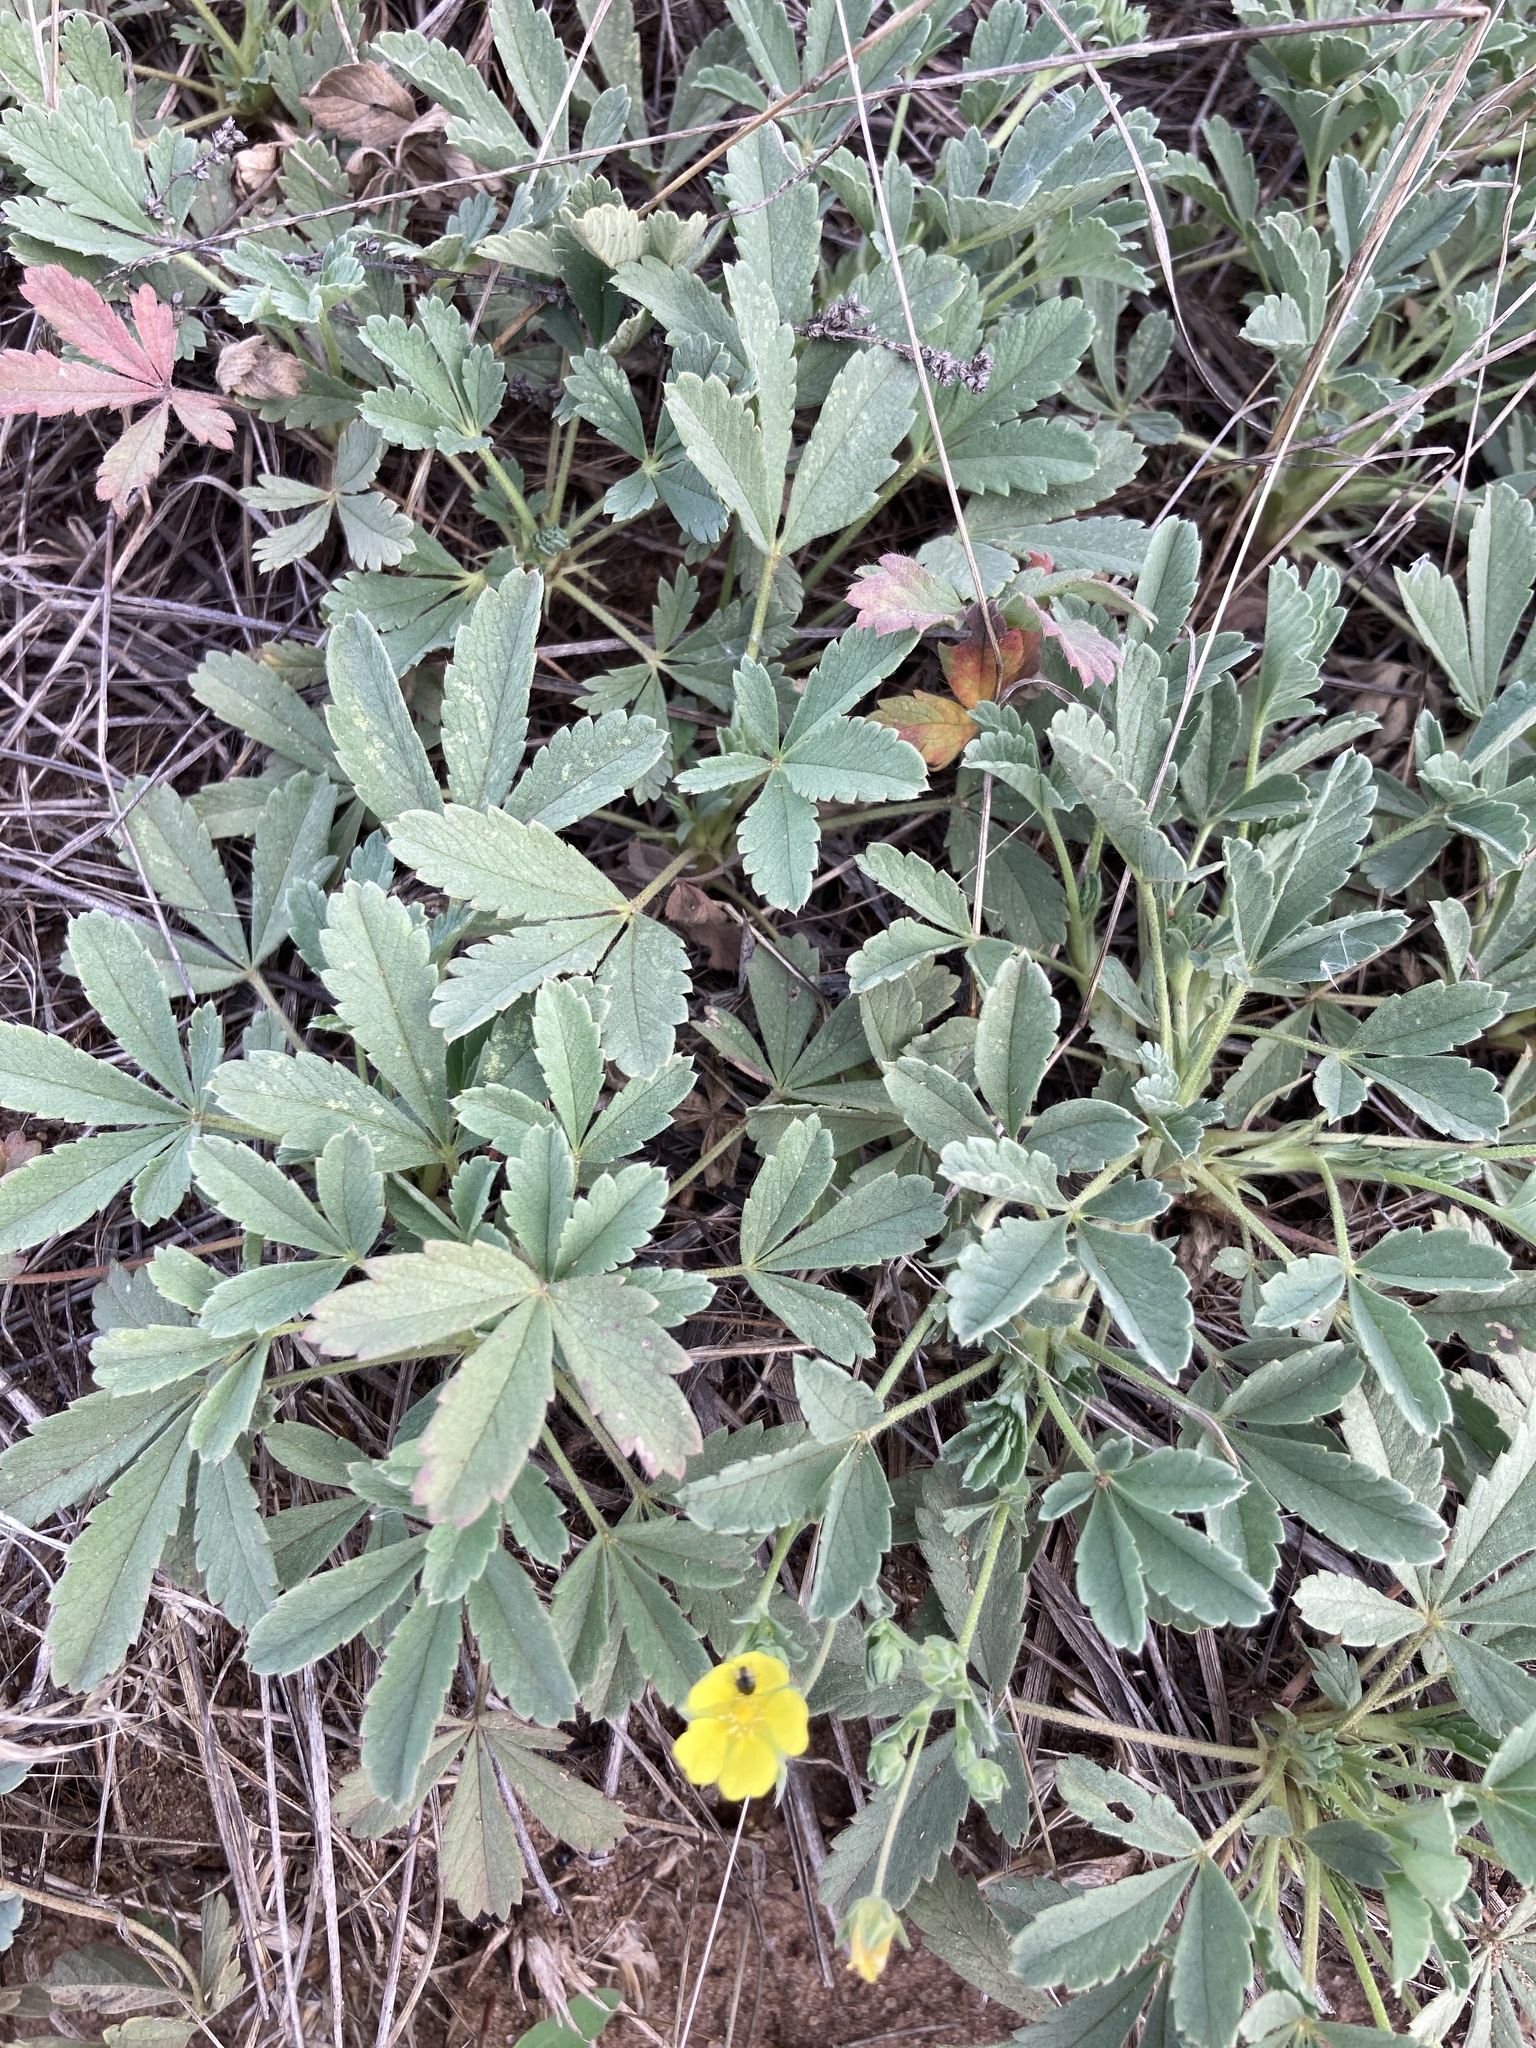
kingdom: Plantae
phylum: Tracheophyta
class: Magnoliopsida
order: Rosales
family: Rosaceae
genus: Potentilla
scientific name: Potentilla incana
